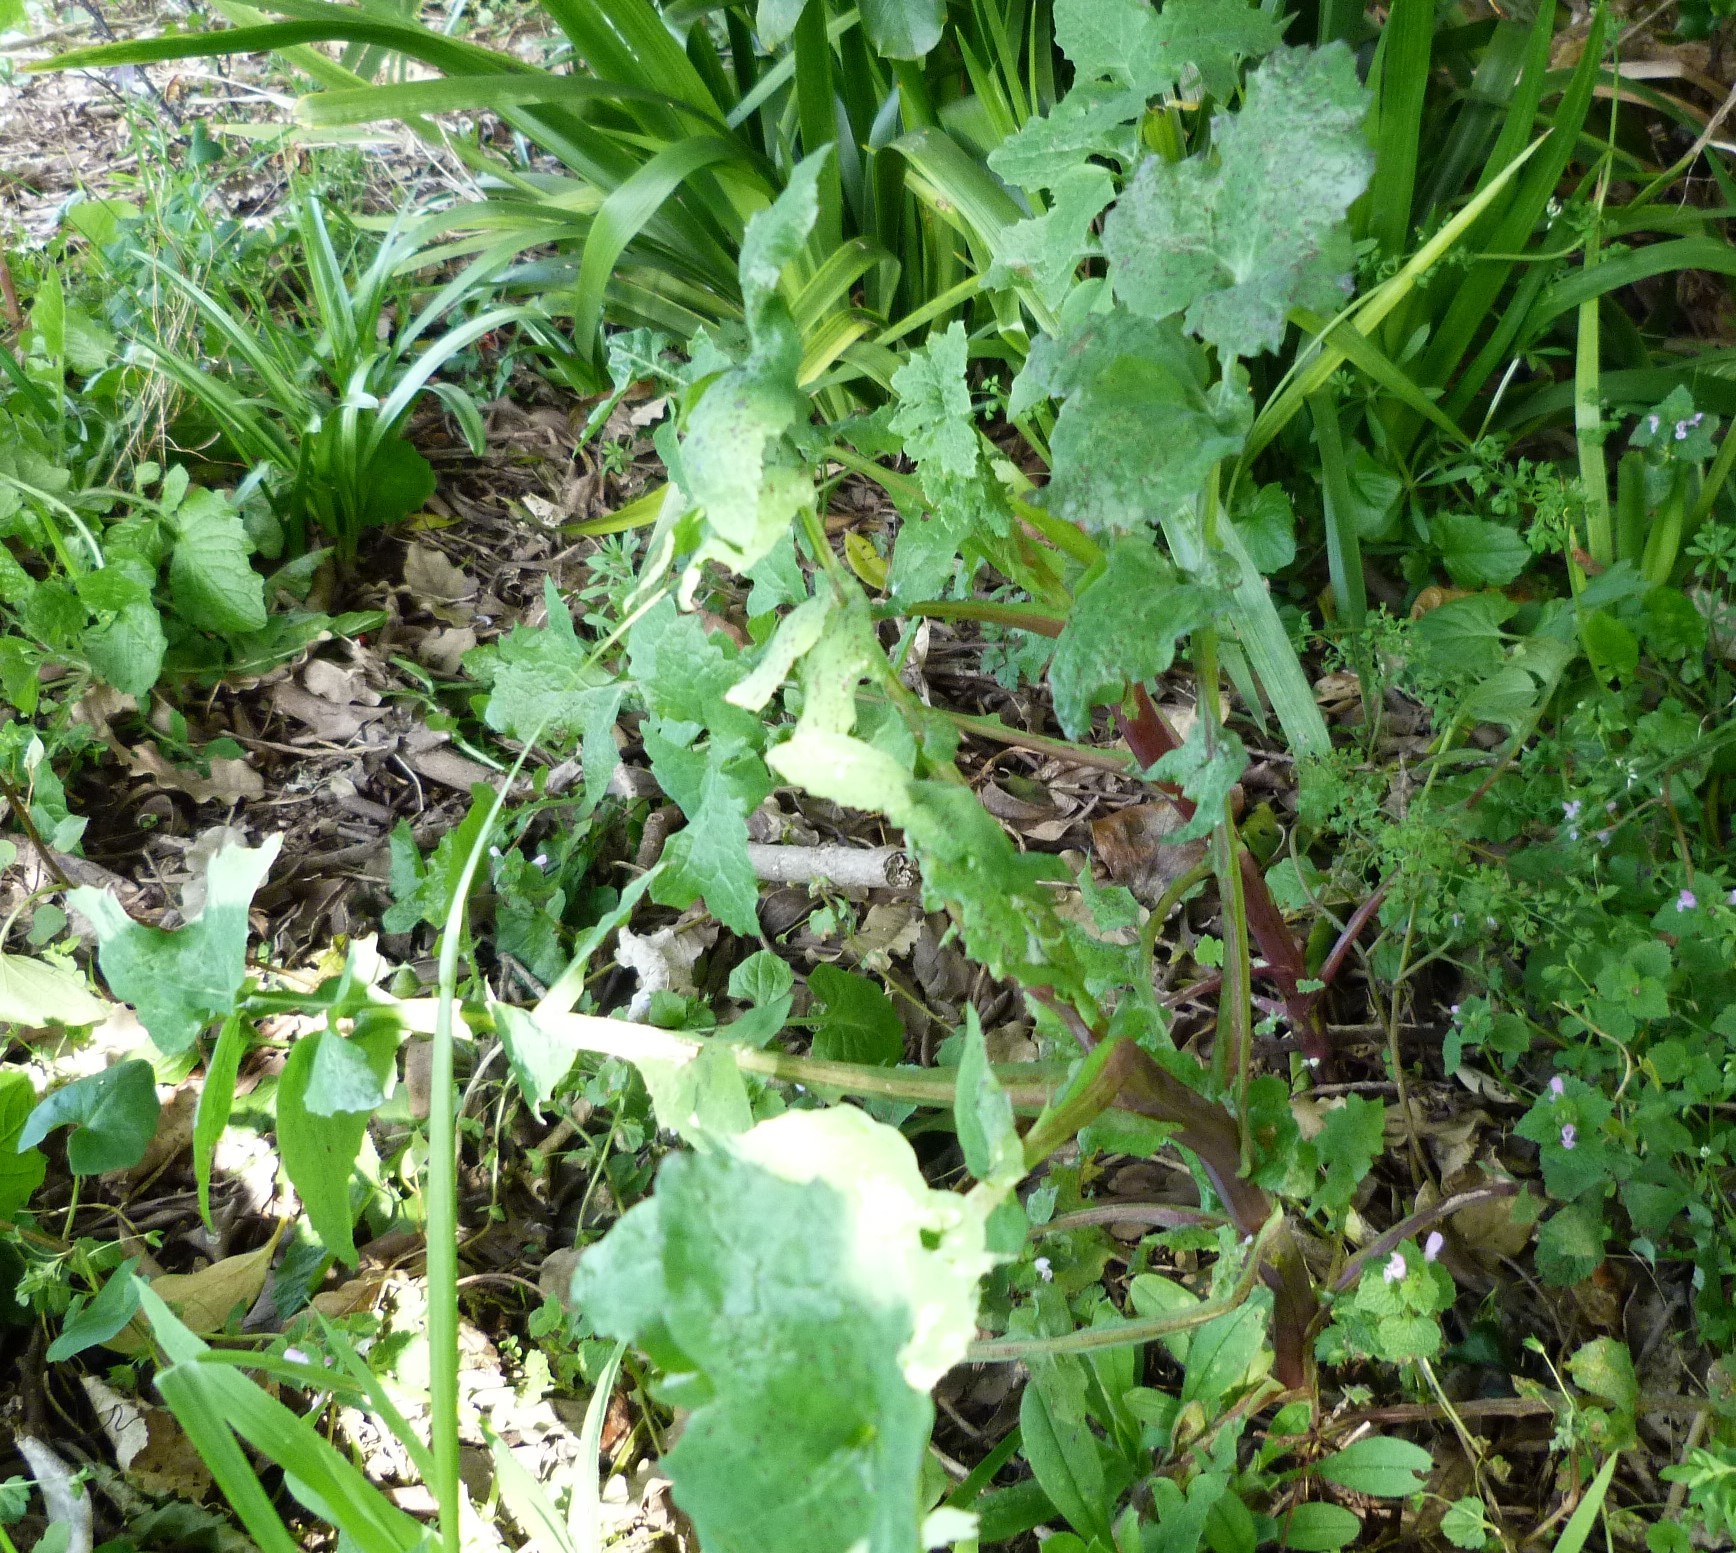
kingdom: Plantae
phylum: Tracheophyta
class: Magnoliopsida
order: Asterales
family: Asteraceae
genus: Sonchus
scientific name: Sonchus oleraceus
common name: Common sowthistle
